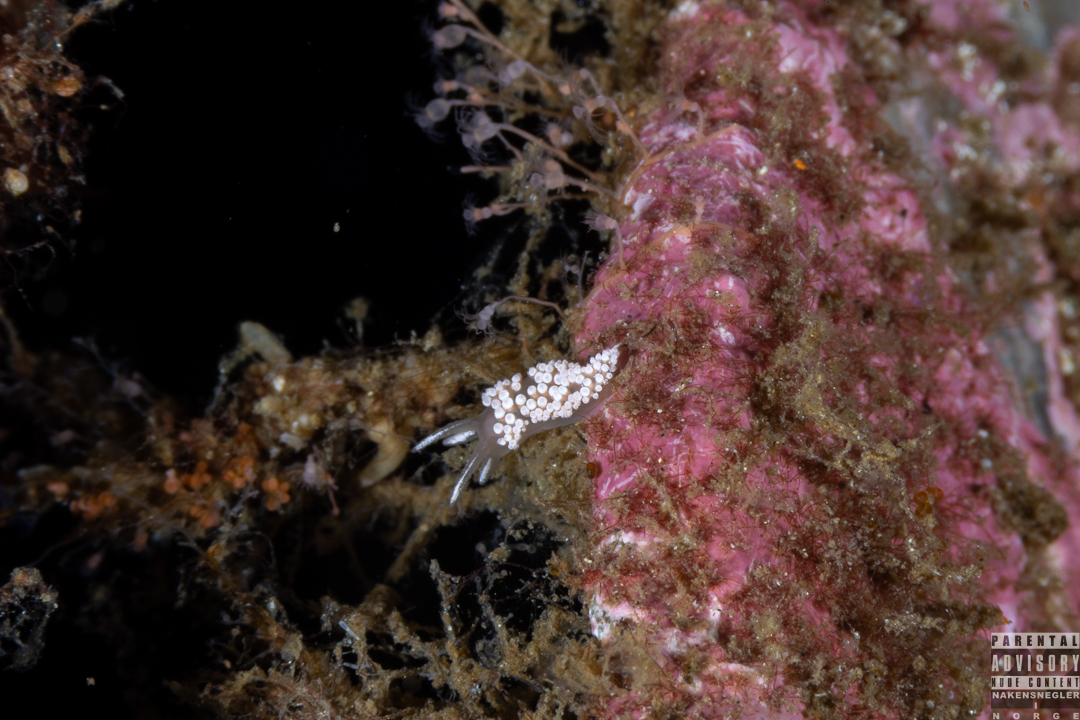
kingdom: Animalia
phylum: Mollusca
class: Gastropoda
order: Nudibranchia
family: Coryphellidae
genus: Coryphella
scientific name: Coryphella verrucosa
